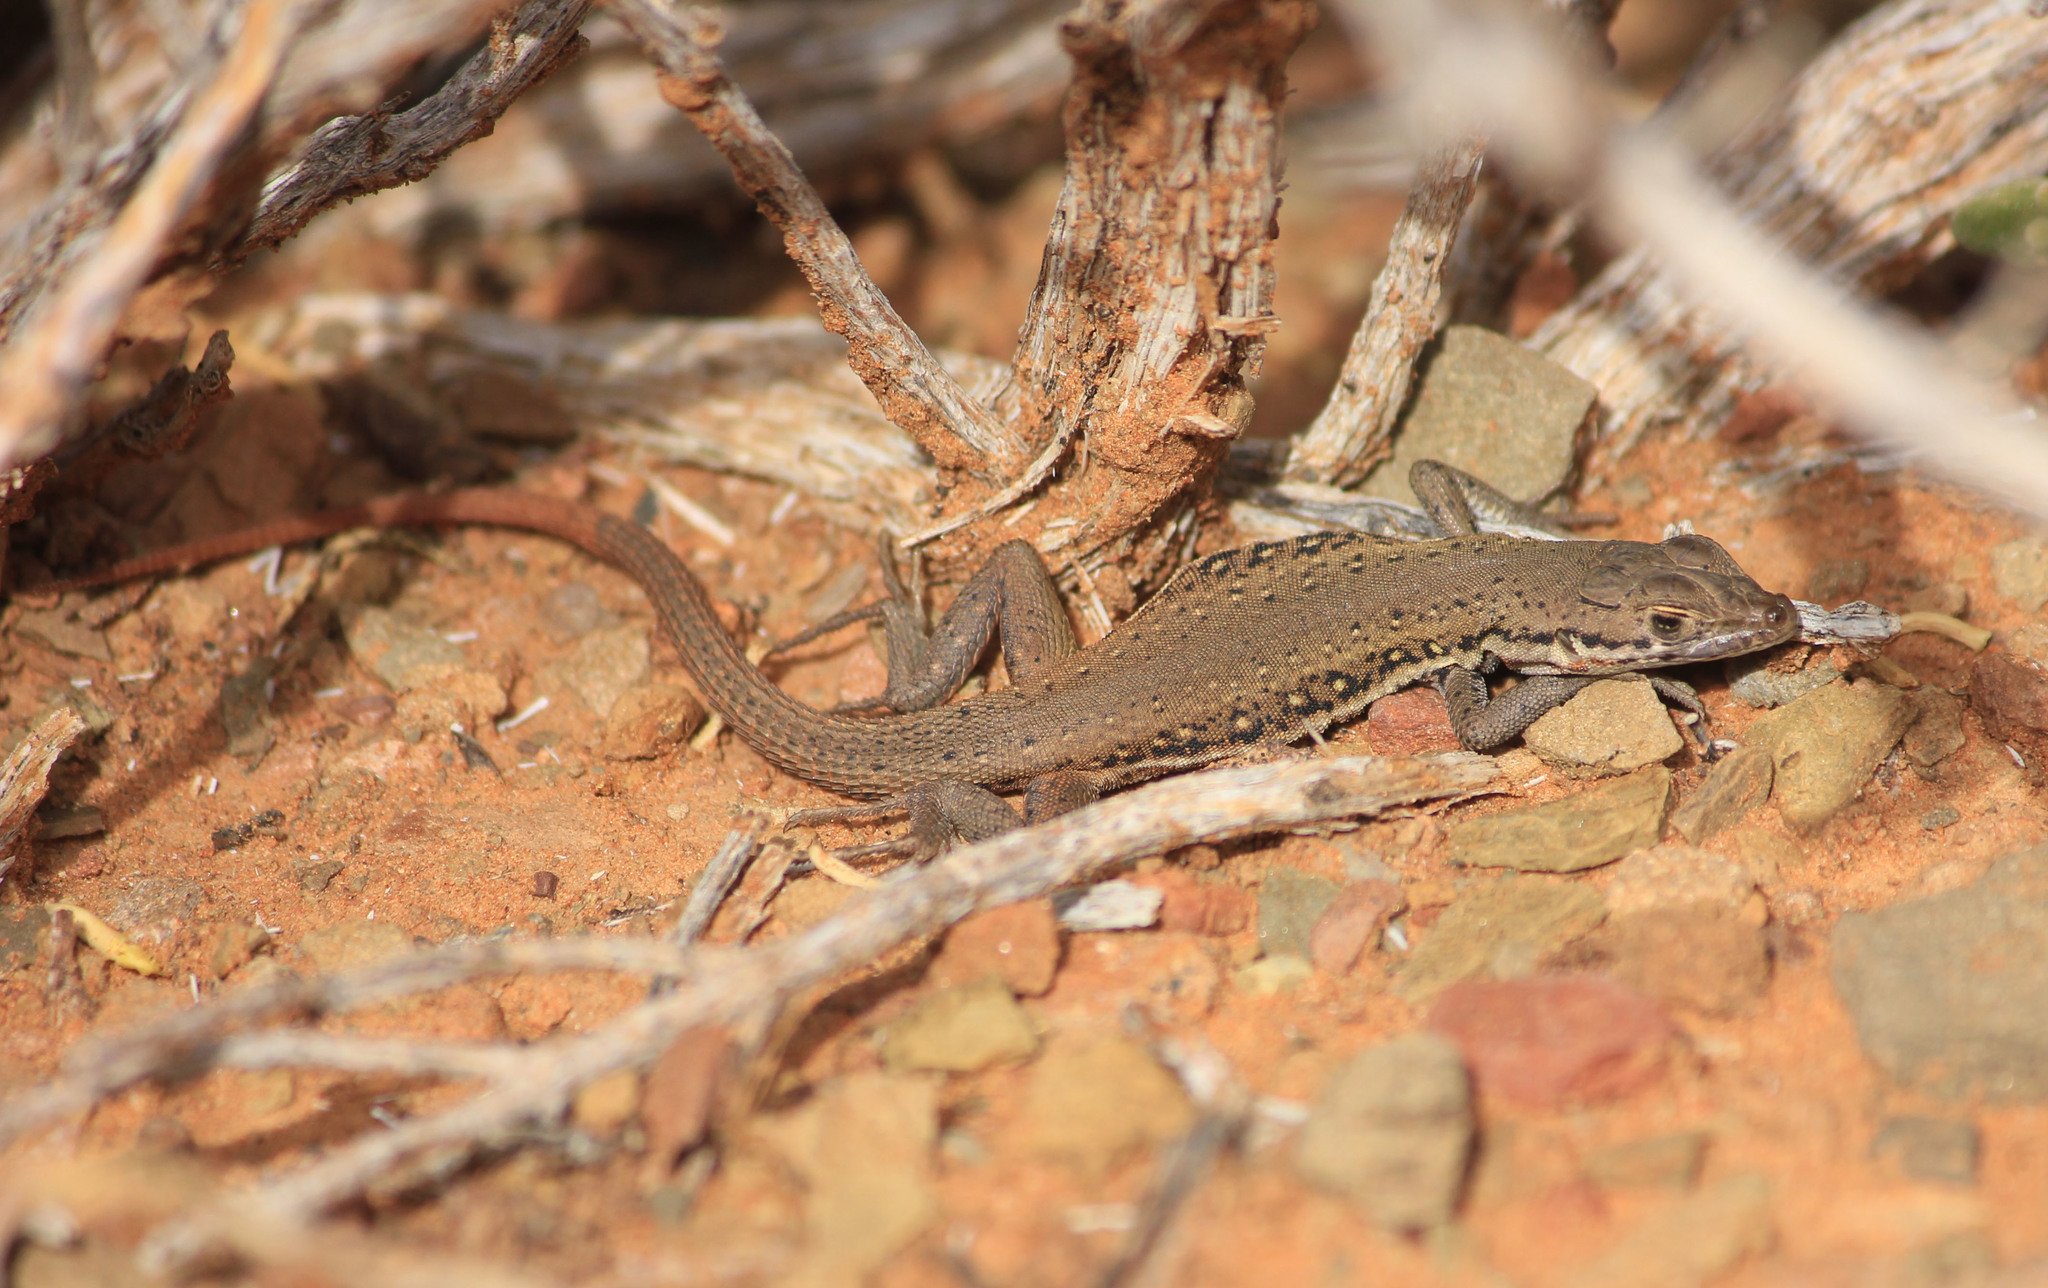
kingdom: Animalia
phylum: Chordata
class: Squamata
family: Lacertidae
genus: Pedioplanis
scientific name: Pedioplanis lineoocellata
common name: Spotted sand lizard
